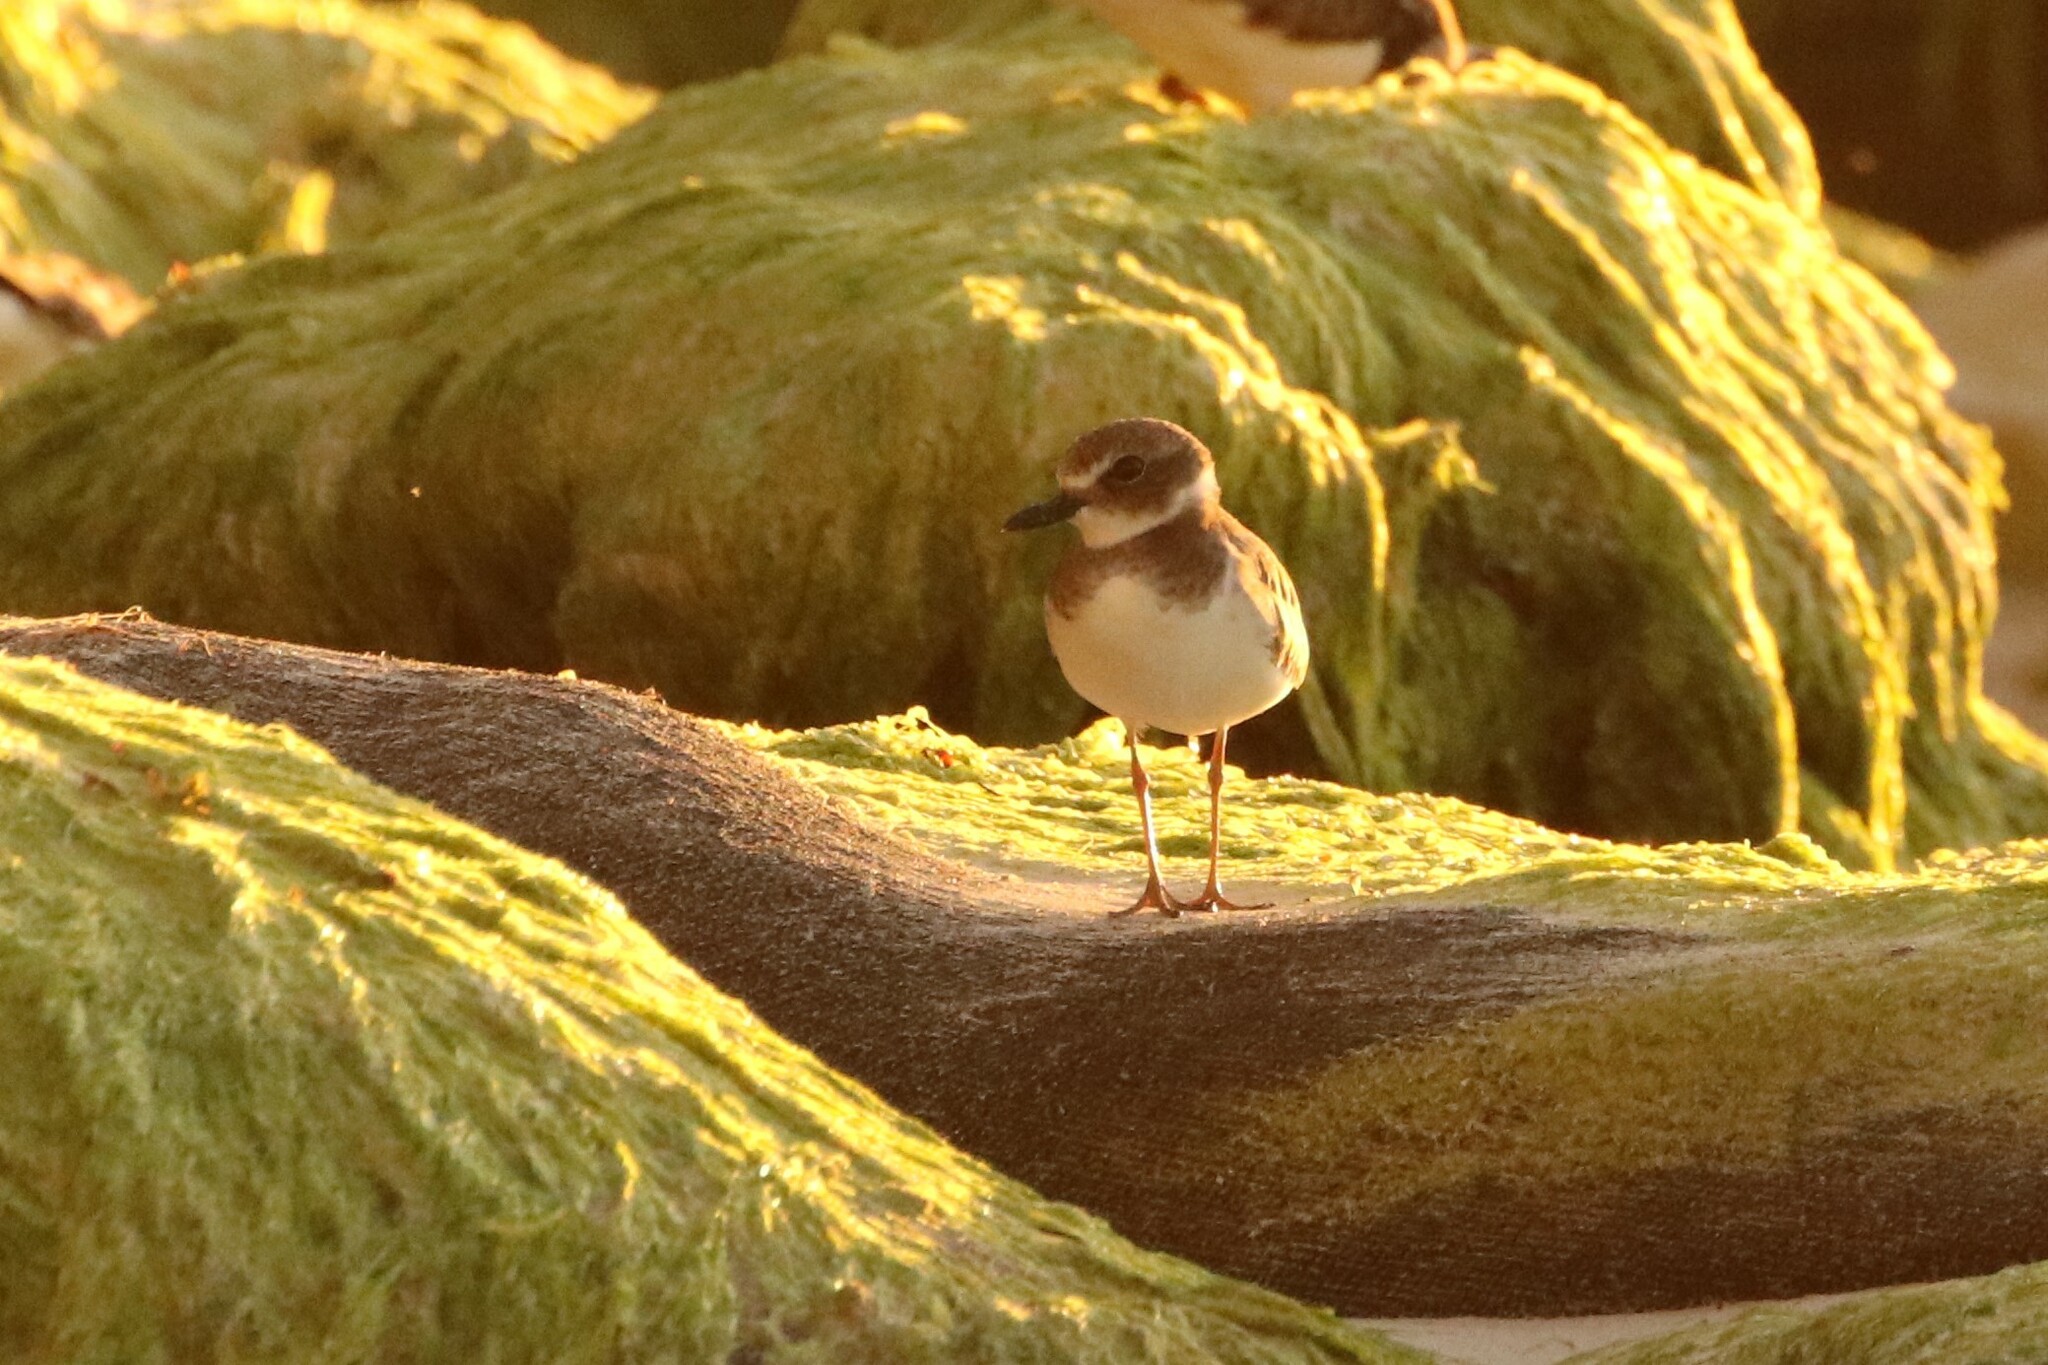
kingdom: Animalia
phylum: Chordata
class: Aves
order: Charadriiformes
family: Charadriidae
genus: Anarhynchus
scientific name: Anarhynchus
